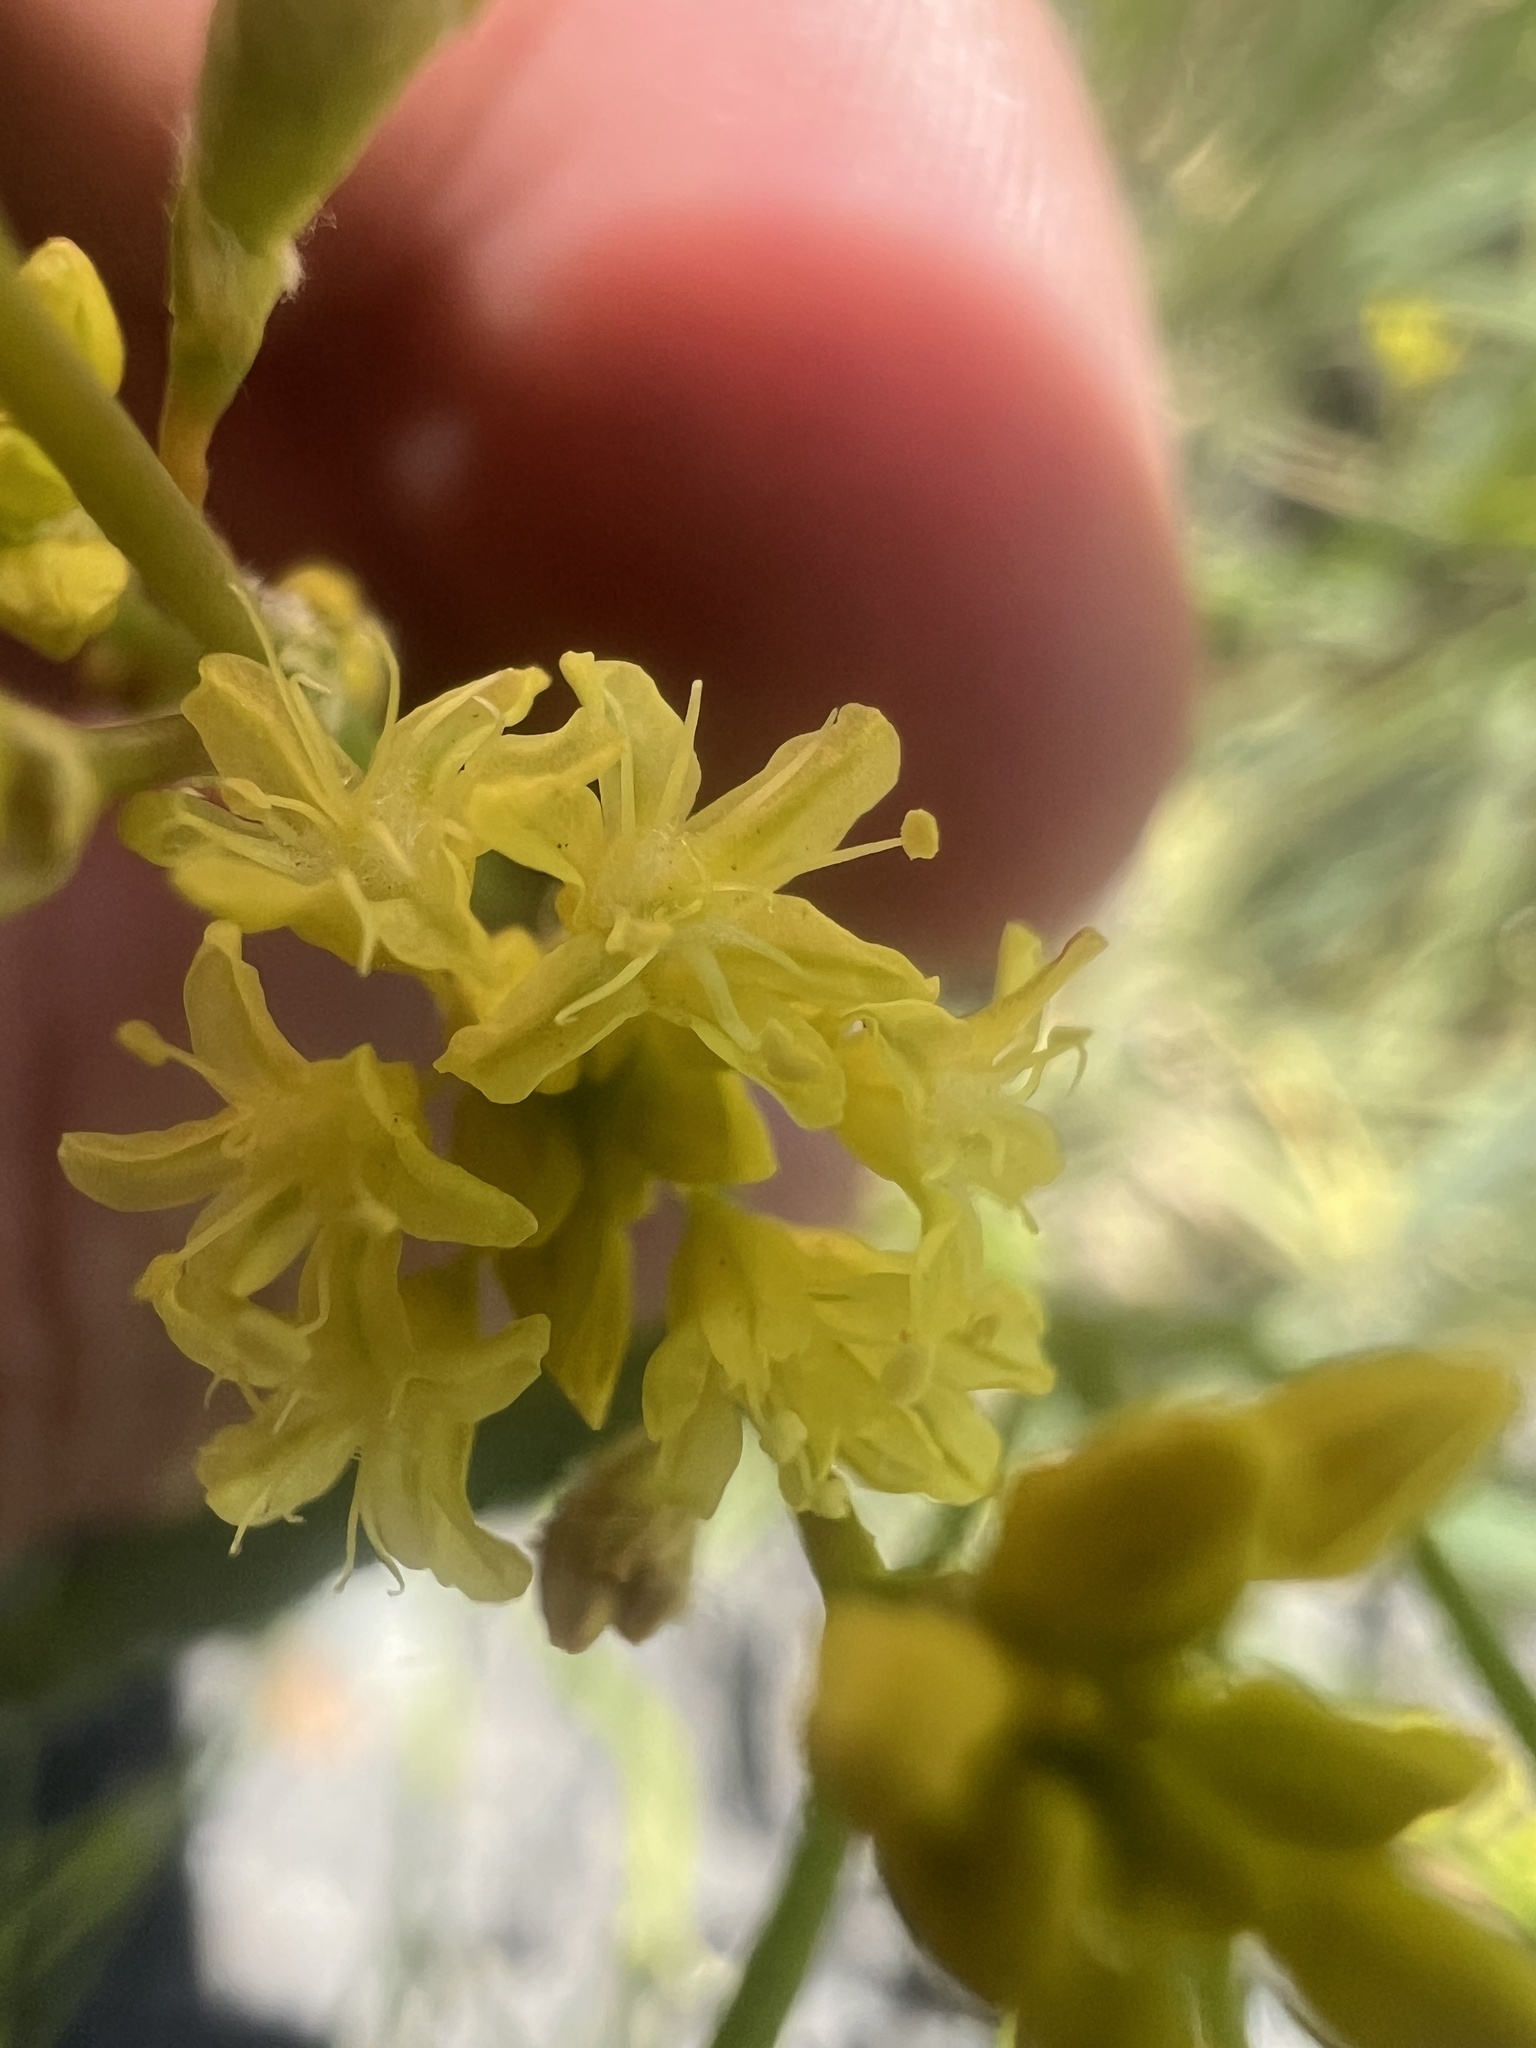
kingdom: Plantae
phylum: Tracheophyta
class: Magnoliopsida
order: Caryophyllales
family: Polygonaceae
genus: Eriogonum
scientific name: Eriogonum brevicaule
